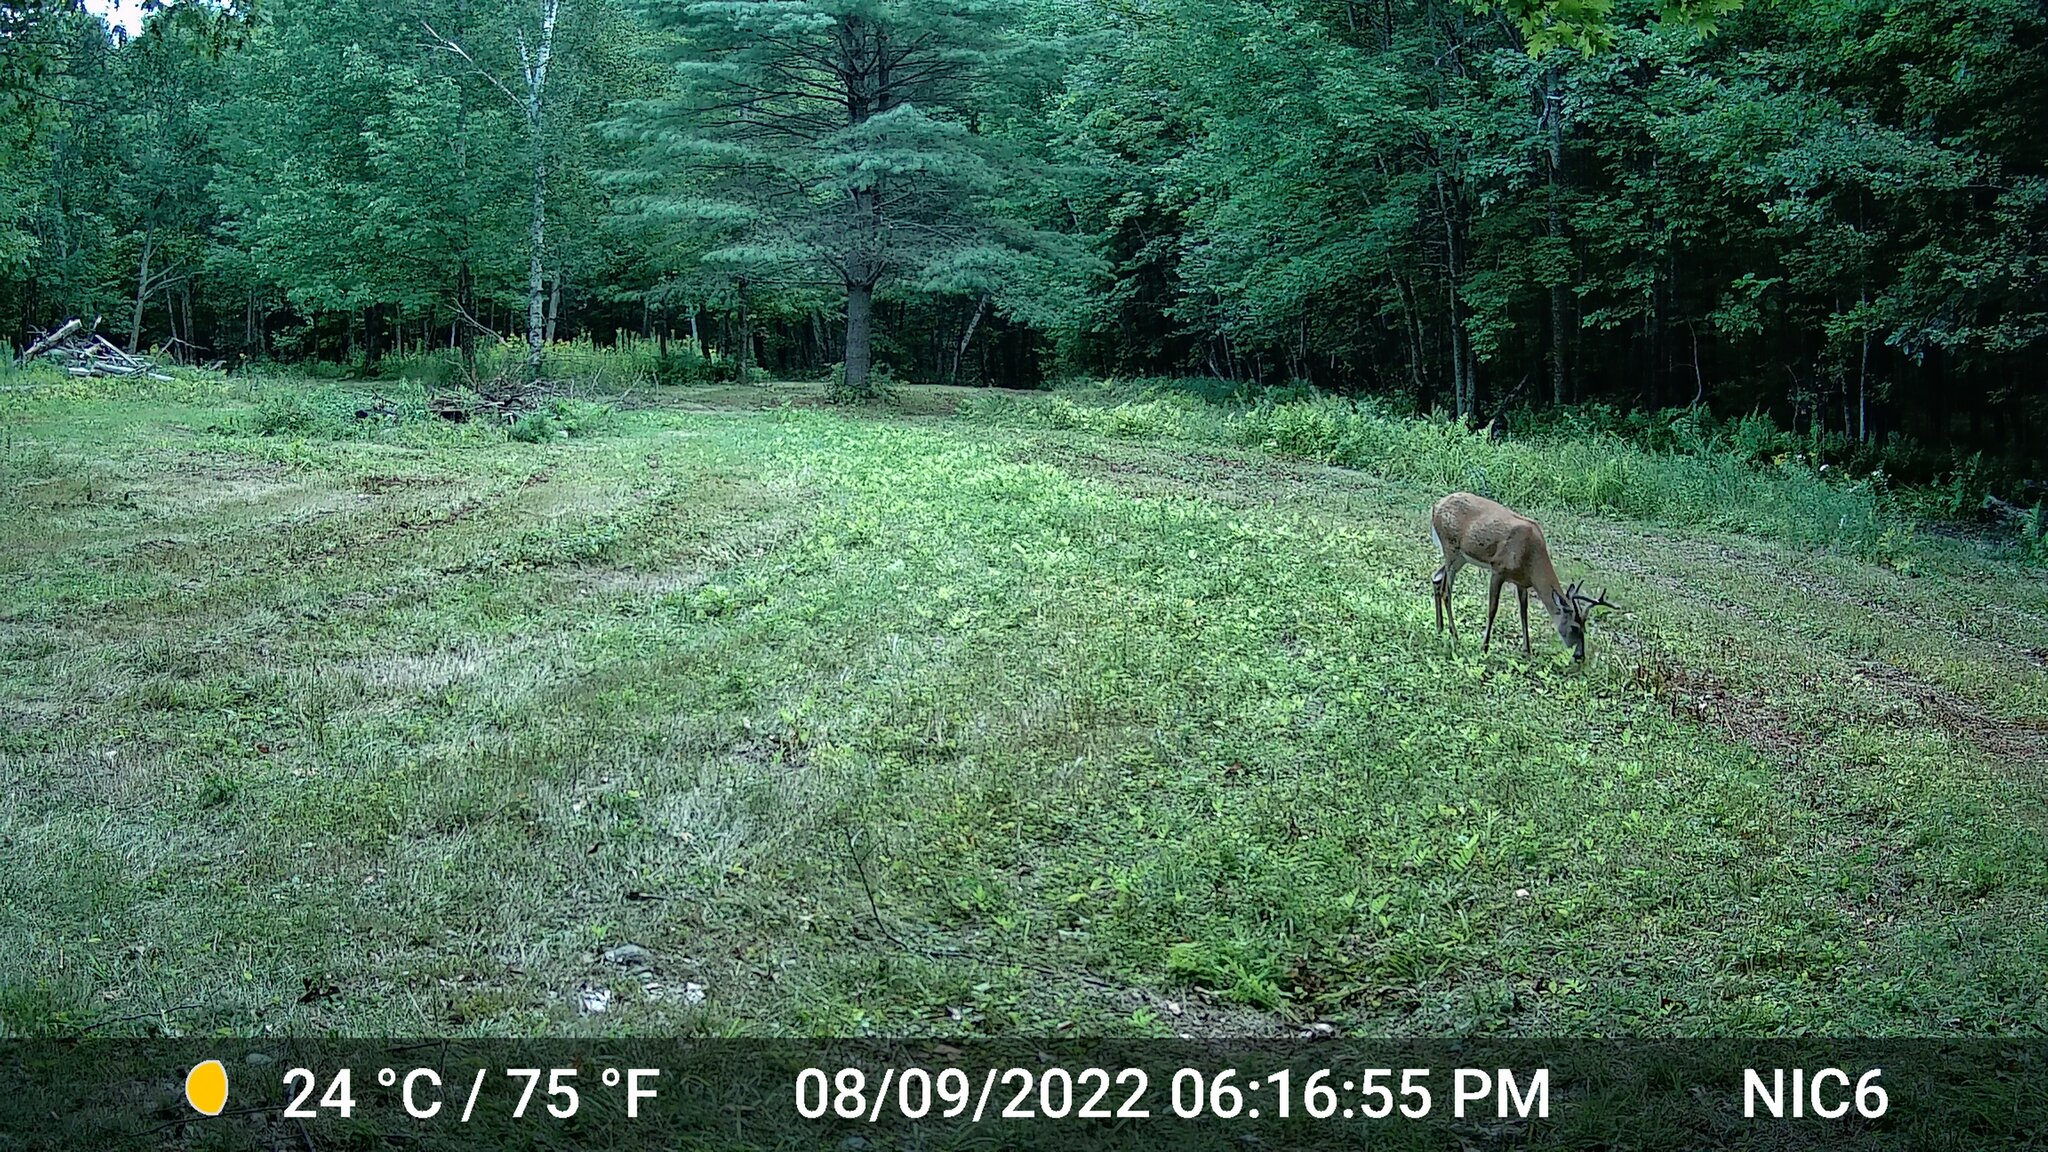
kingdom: Animalia
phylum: Chordata
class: Mammalia
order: Artiodactyla
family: Cervidae
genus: Odocoileus
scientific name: Odocoileus virginianus
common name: White-tailed deer
